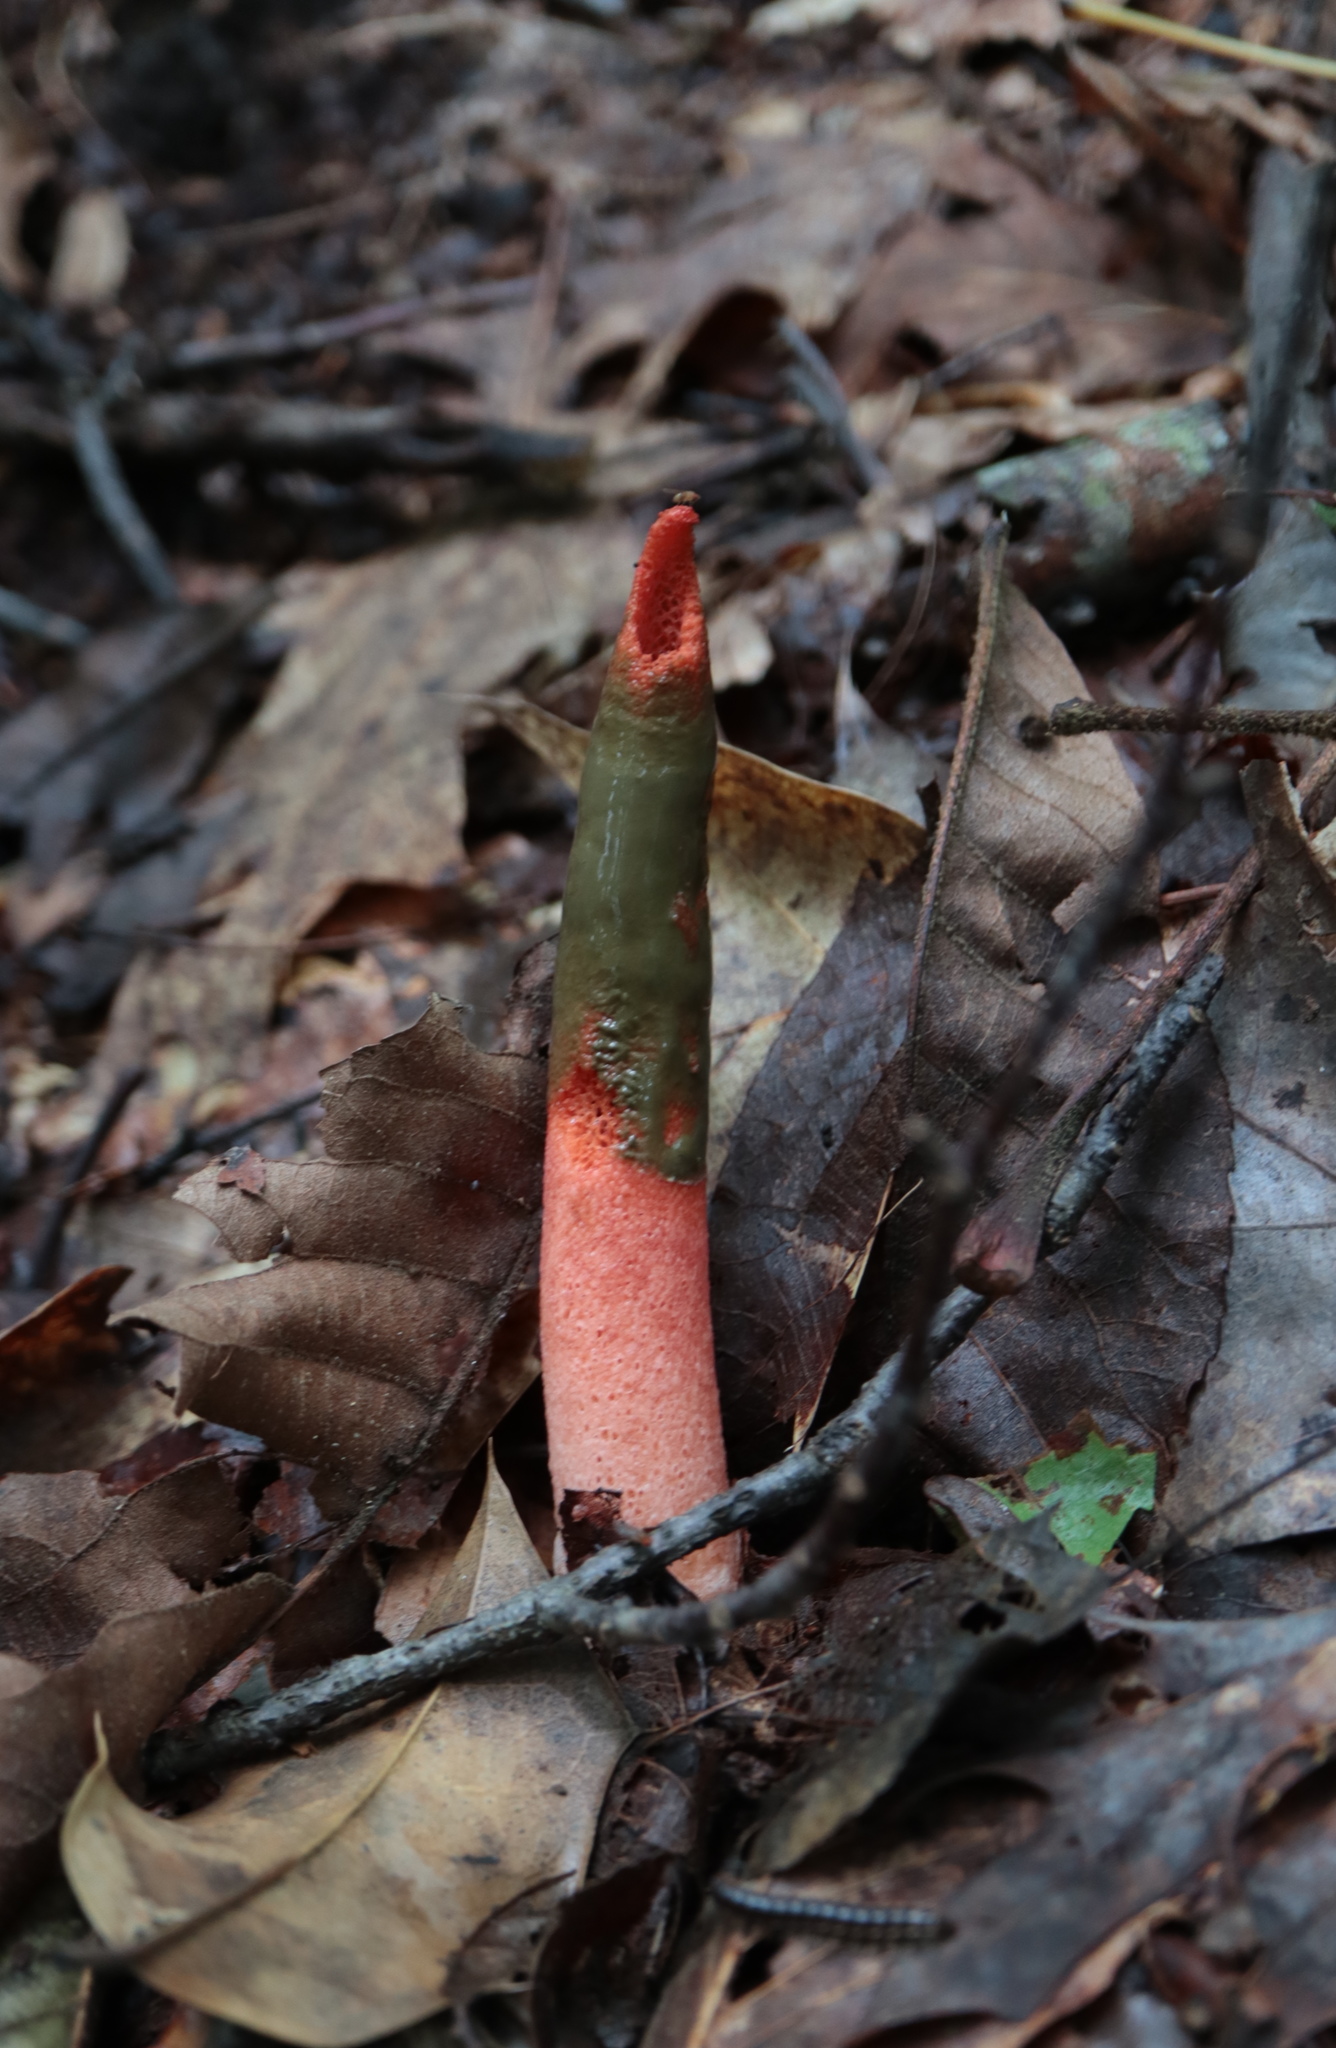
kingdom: Fungi
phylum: Basidiomycota
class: Agaricomycetes
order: Phallales
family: Phallaceae
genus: Mutinus
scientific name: Mutinus elegans
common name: Devil's dipstick
